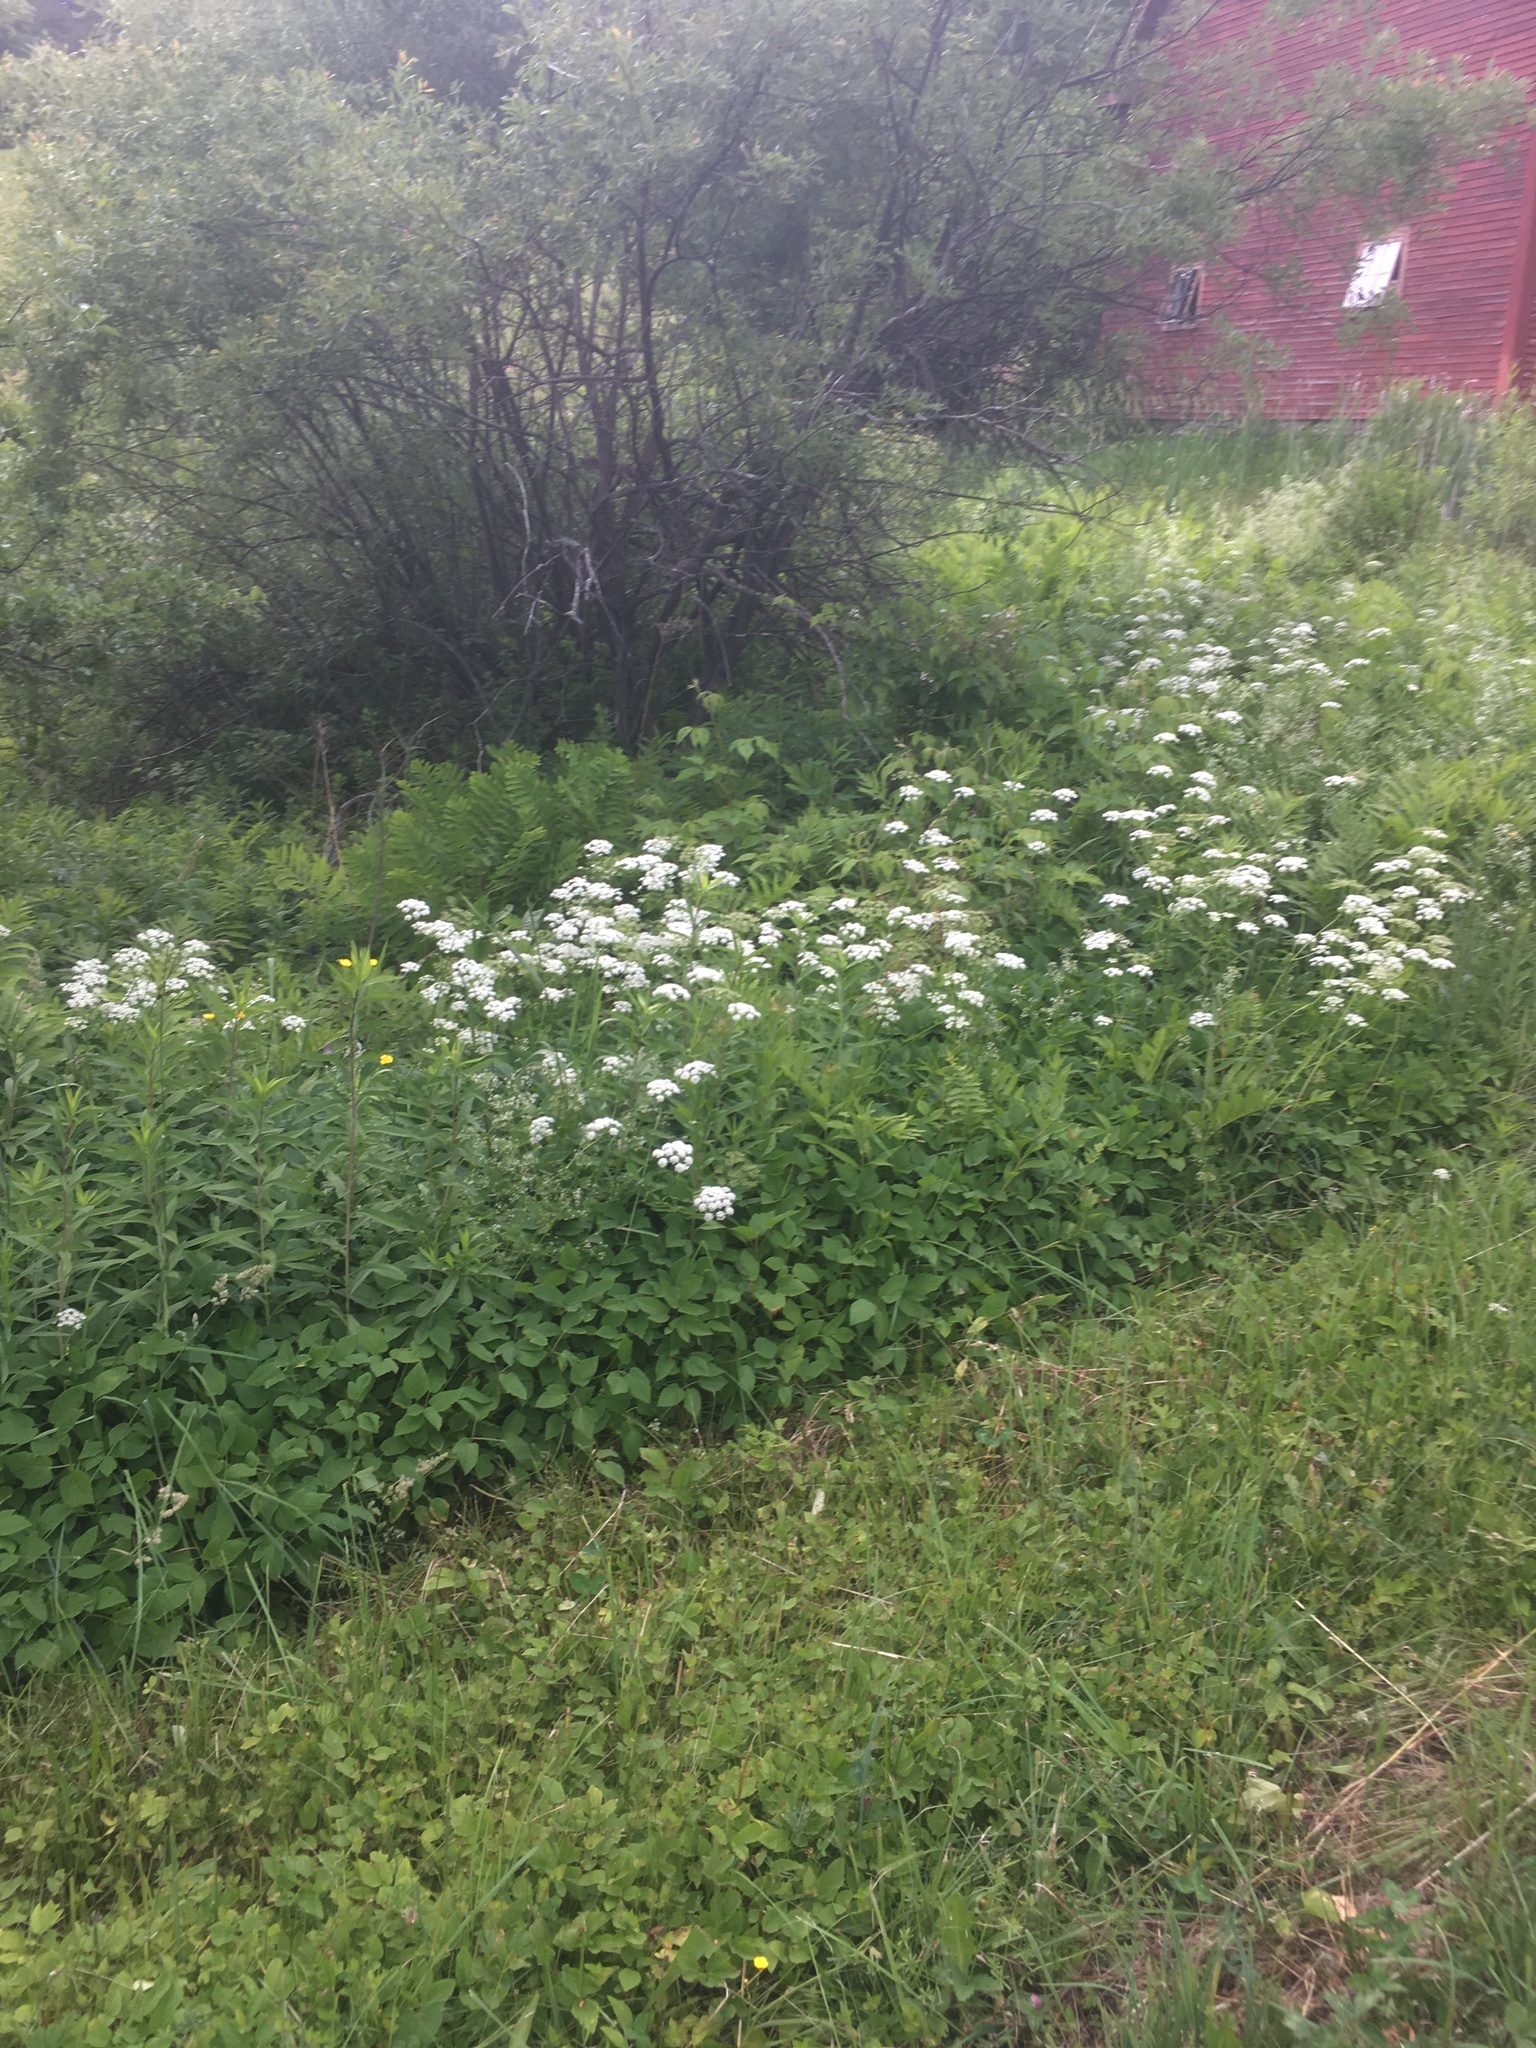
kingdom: Plantae
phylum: Tracheophyta
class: Magnoliopsida
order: Apiales
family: Apiaceae
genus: Aegopodium
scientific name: Aegopodium podagraria
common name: Ground-elder
